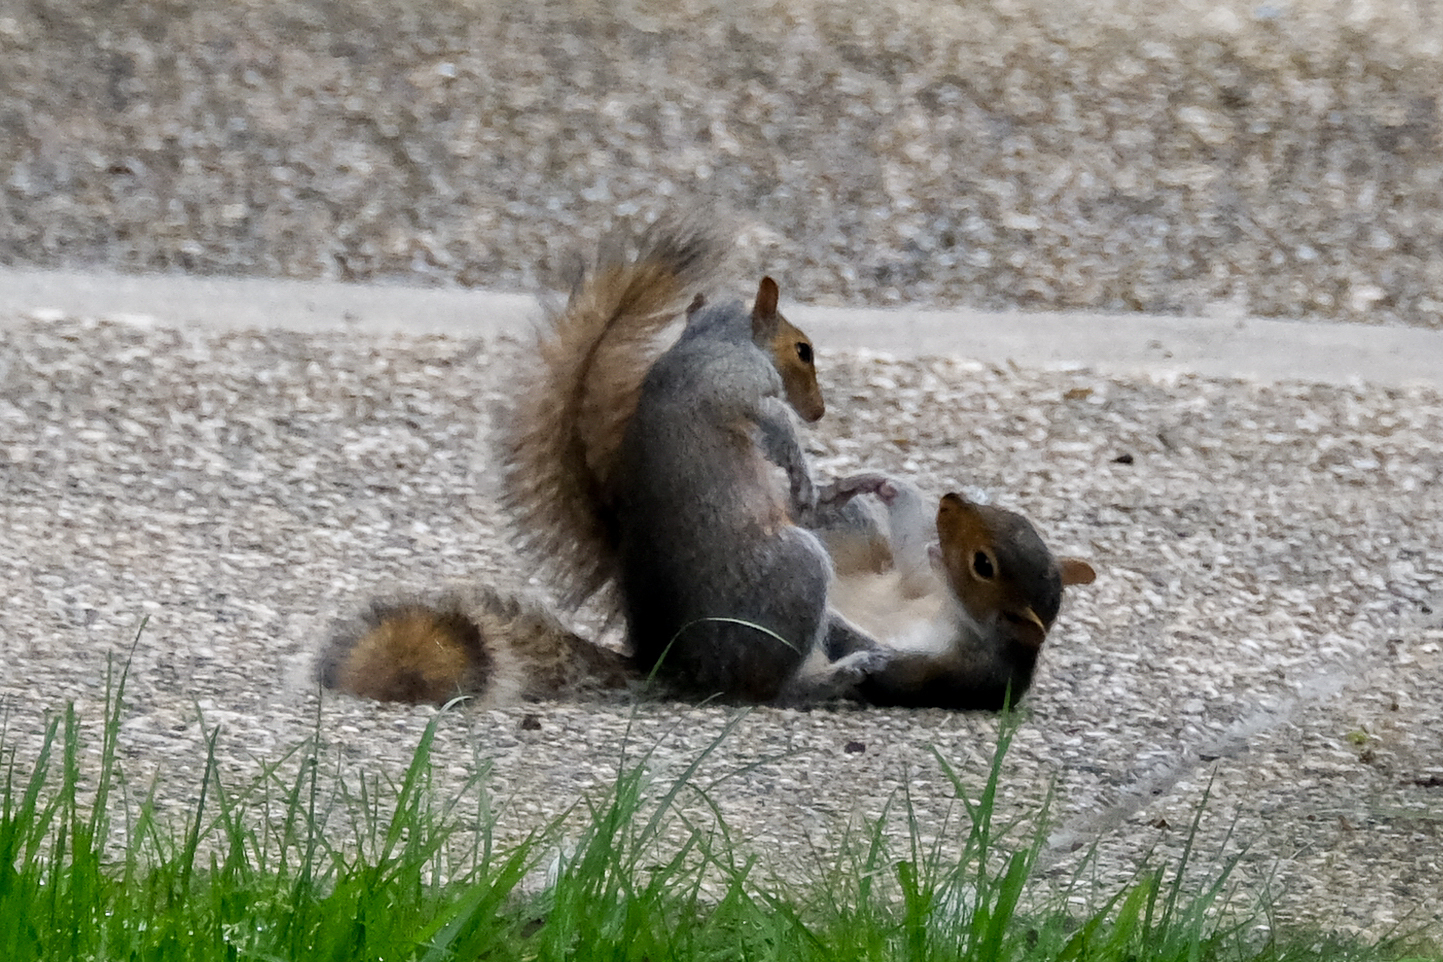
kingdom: Animalia
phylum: Chordata
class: Mammalia
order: Rodentia
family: Sciuridae
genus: Sciurus
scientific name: Sciurus carolinensis
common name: Eastern gray squirrel
